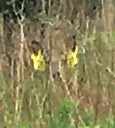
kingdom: Animalia
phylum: Chordata
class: Mammalia
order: Artiodactyla
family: Cervidae
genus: Odocoileus
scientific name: Odocoileus virginianus
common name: White-tailed deer
